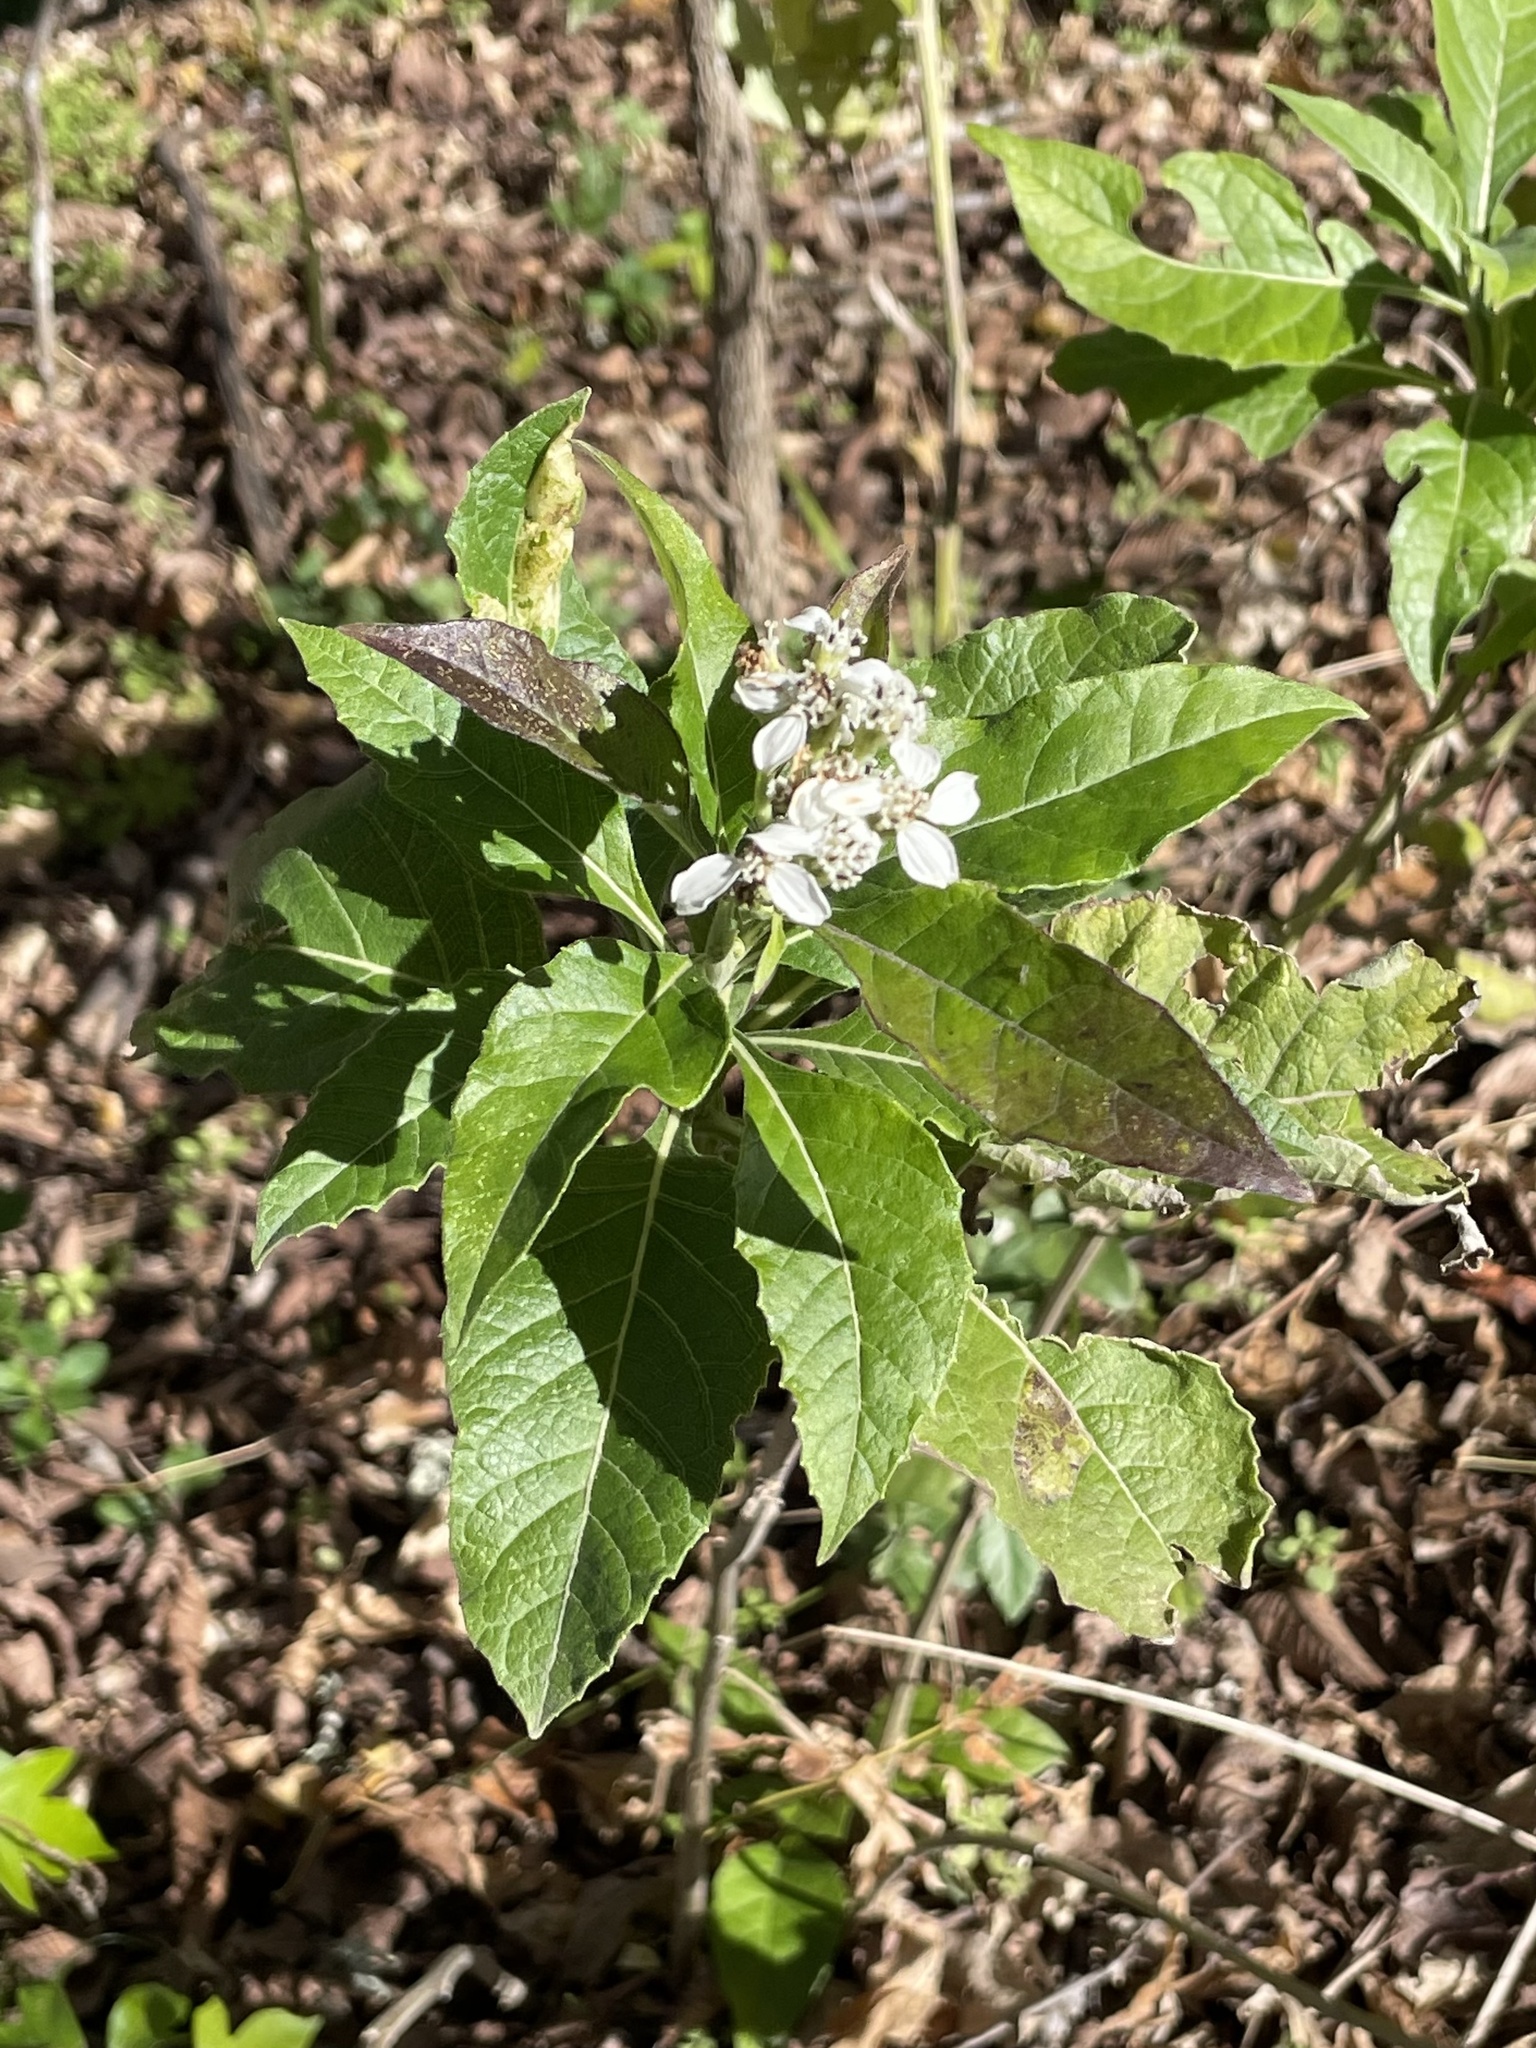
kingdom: Plantae
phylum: Tracheophyta
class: Magnoliopsida
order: Asterales
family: Asteraceae
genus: Verbesina
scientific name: Verbesina virginica
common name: Frostweed
